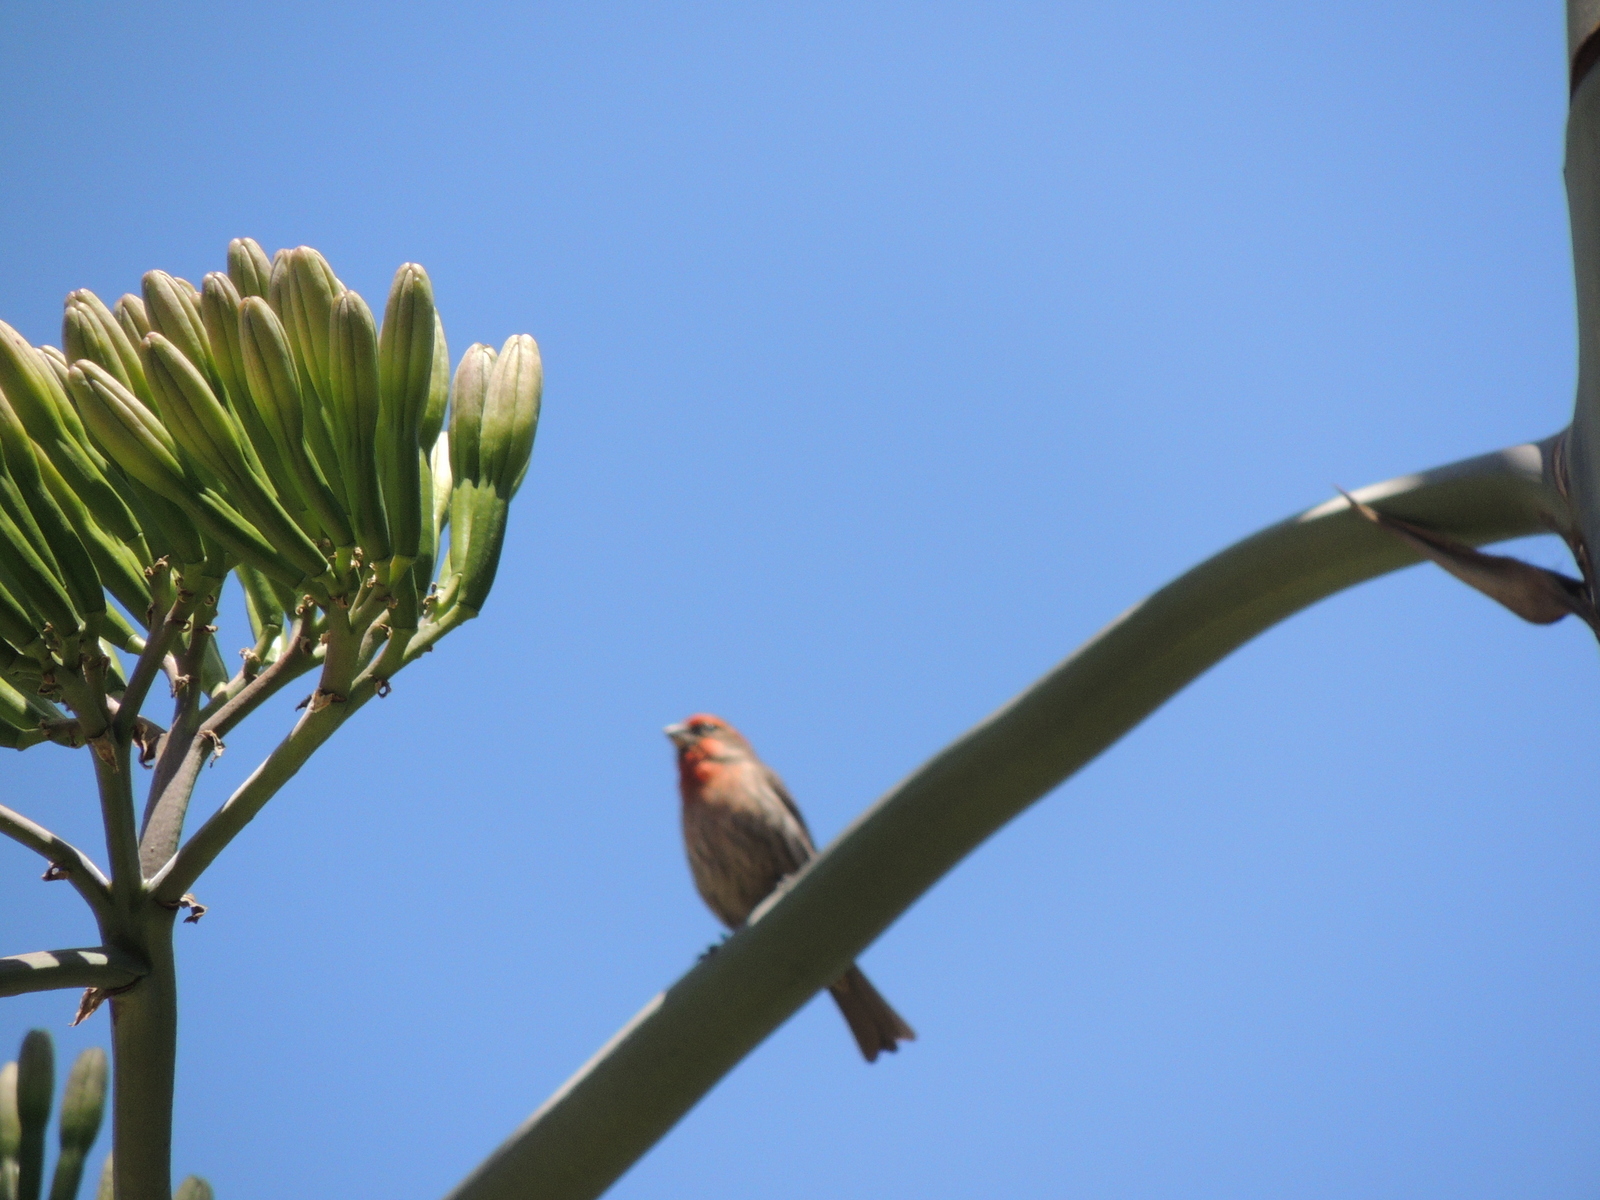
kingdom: Animalia
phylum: Chordata
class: Aves
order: Passeriformes
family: Fringillidae
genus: Haemorhous
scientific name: Haemorhous mexicanus
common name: House finch
